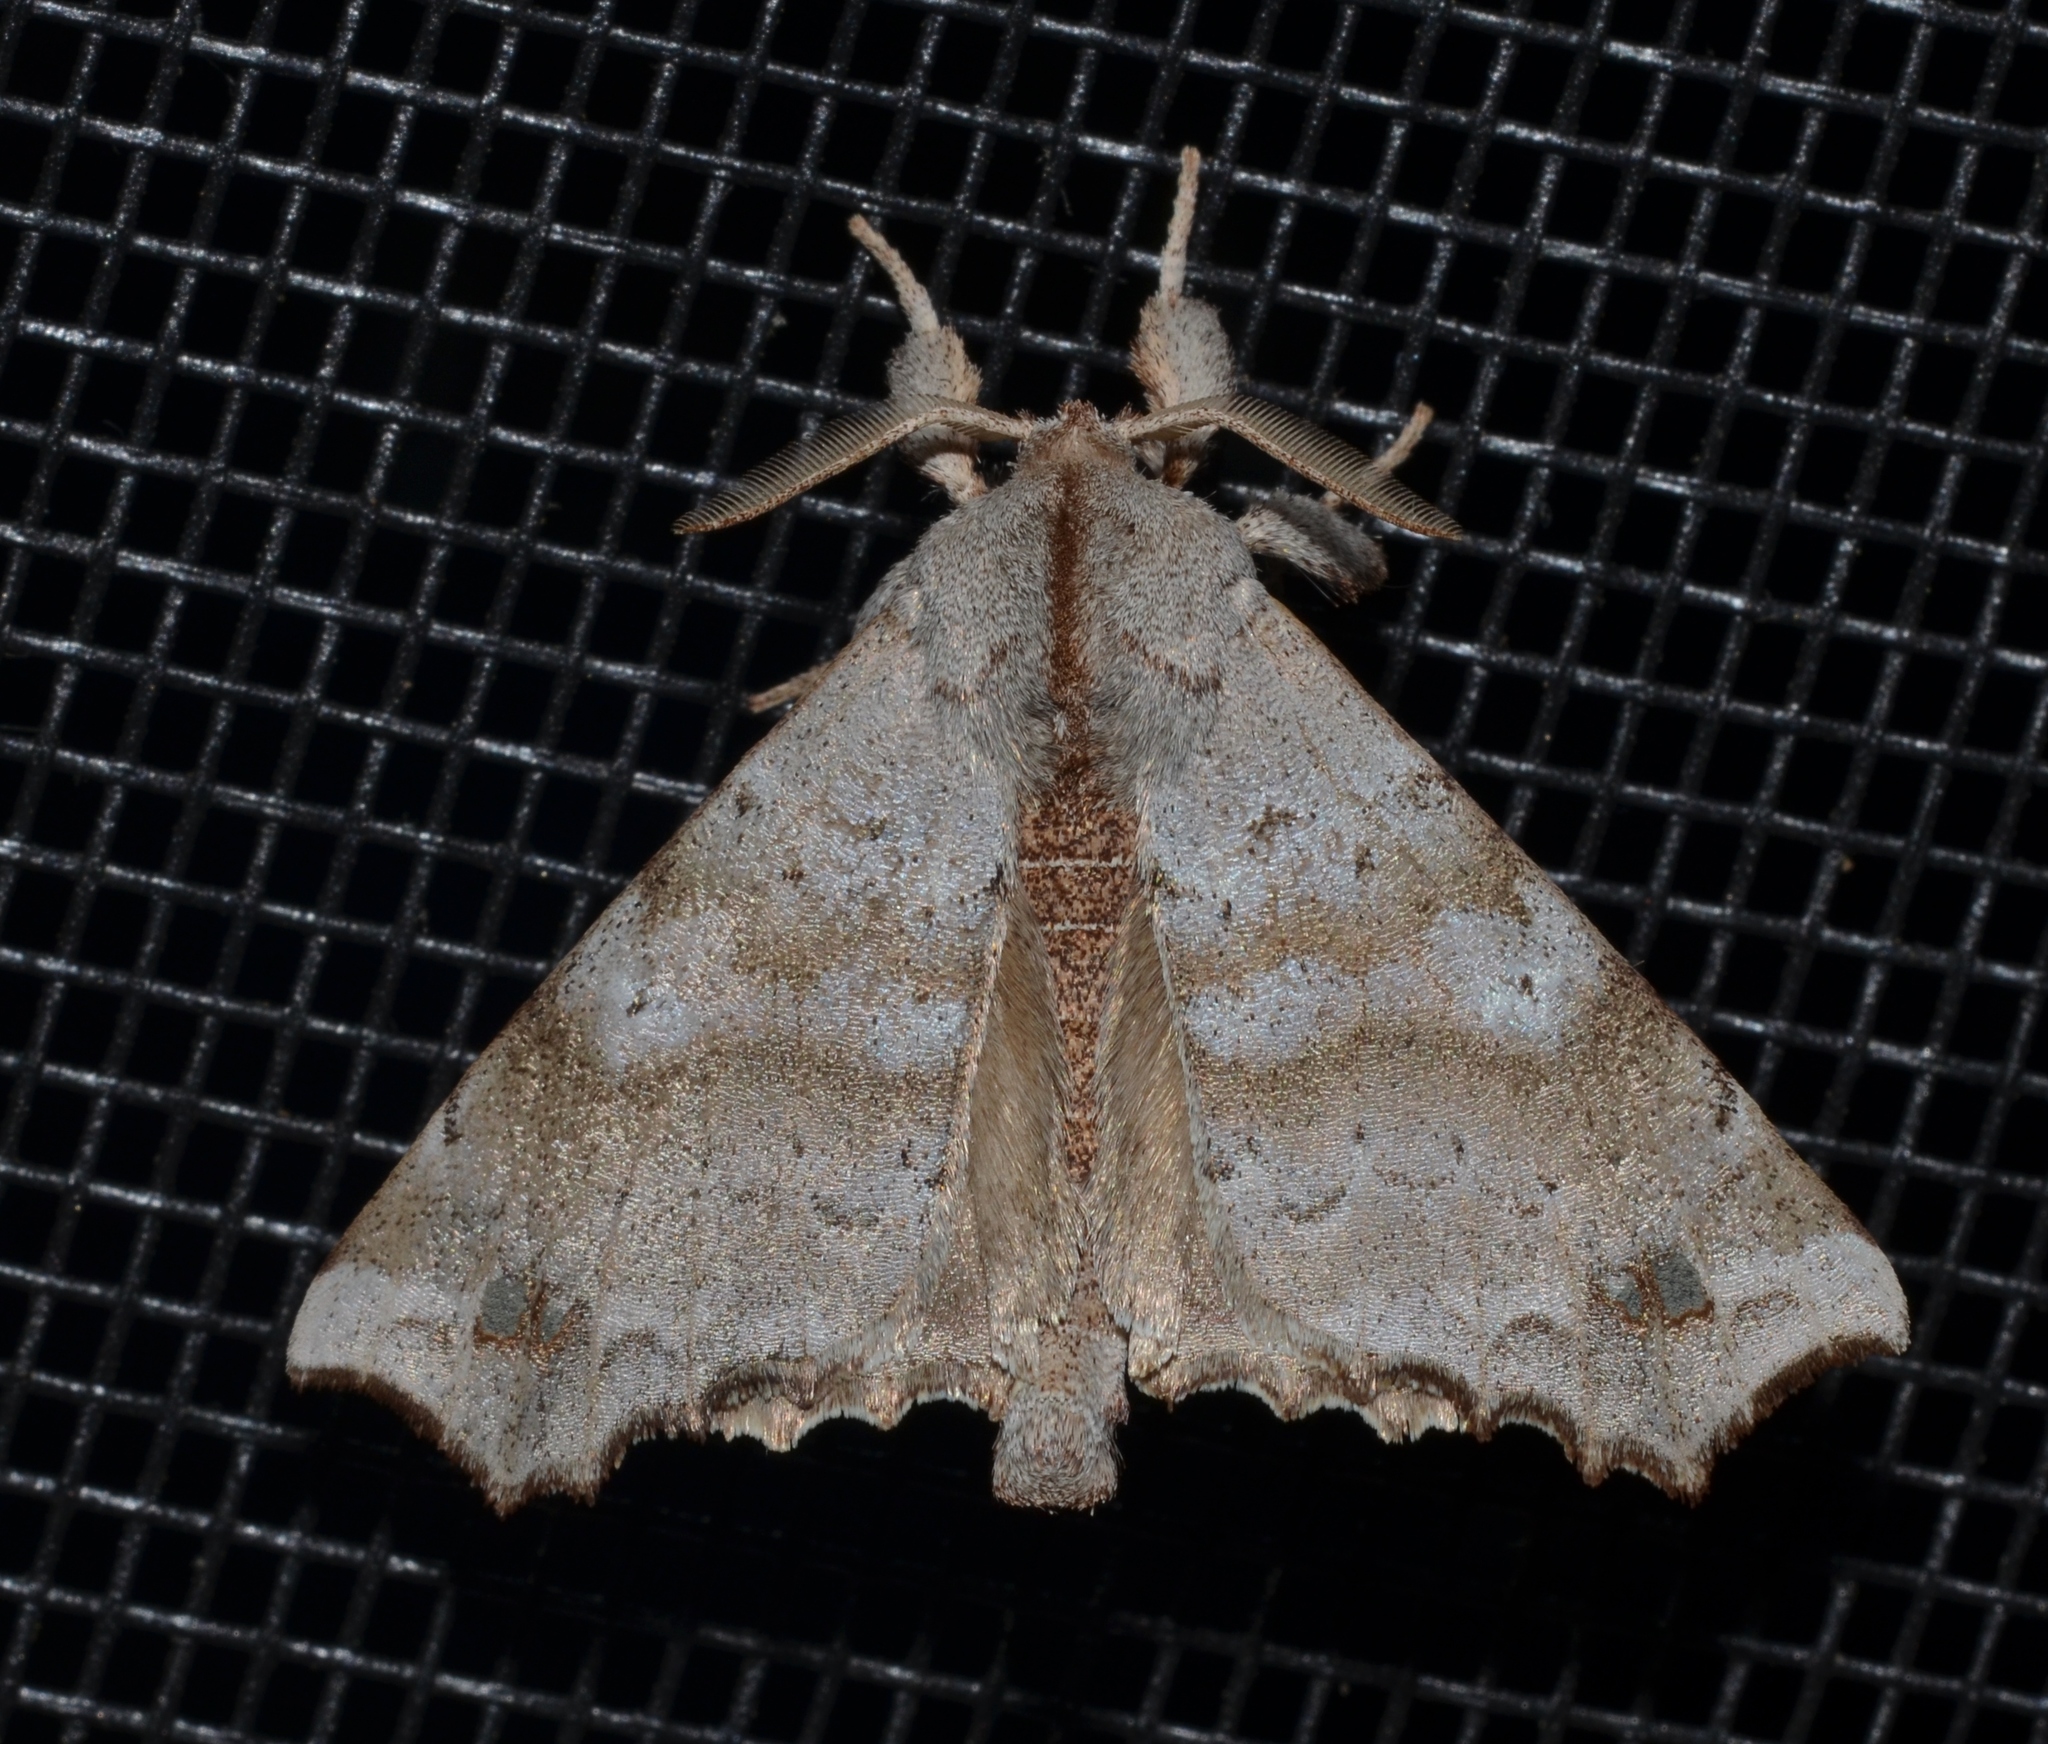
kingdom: Animalia
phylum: Arthropoda
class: Insecta
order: Lepidoptera
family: Apatelodidae
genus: Olceclostera
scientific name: Olceclostera angelica
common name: Angel moth
